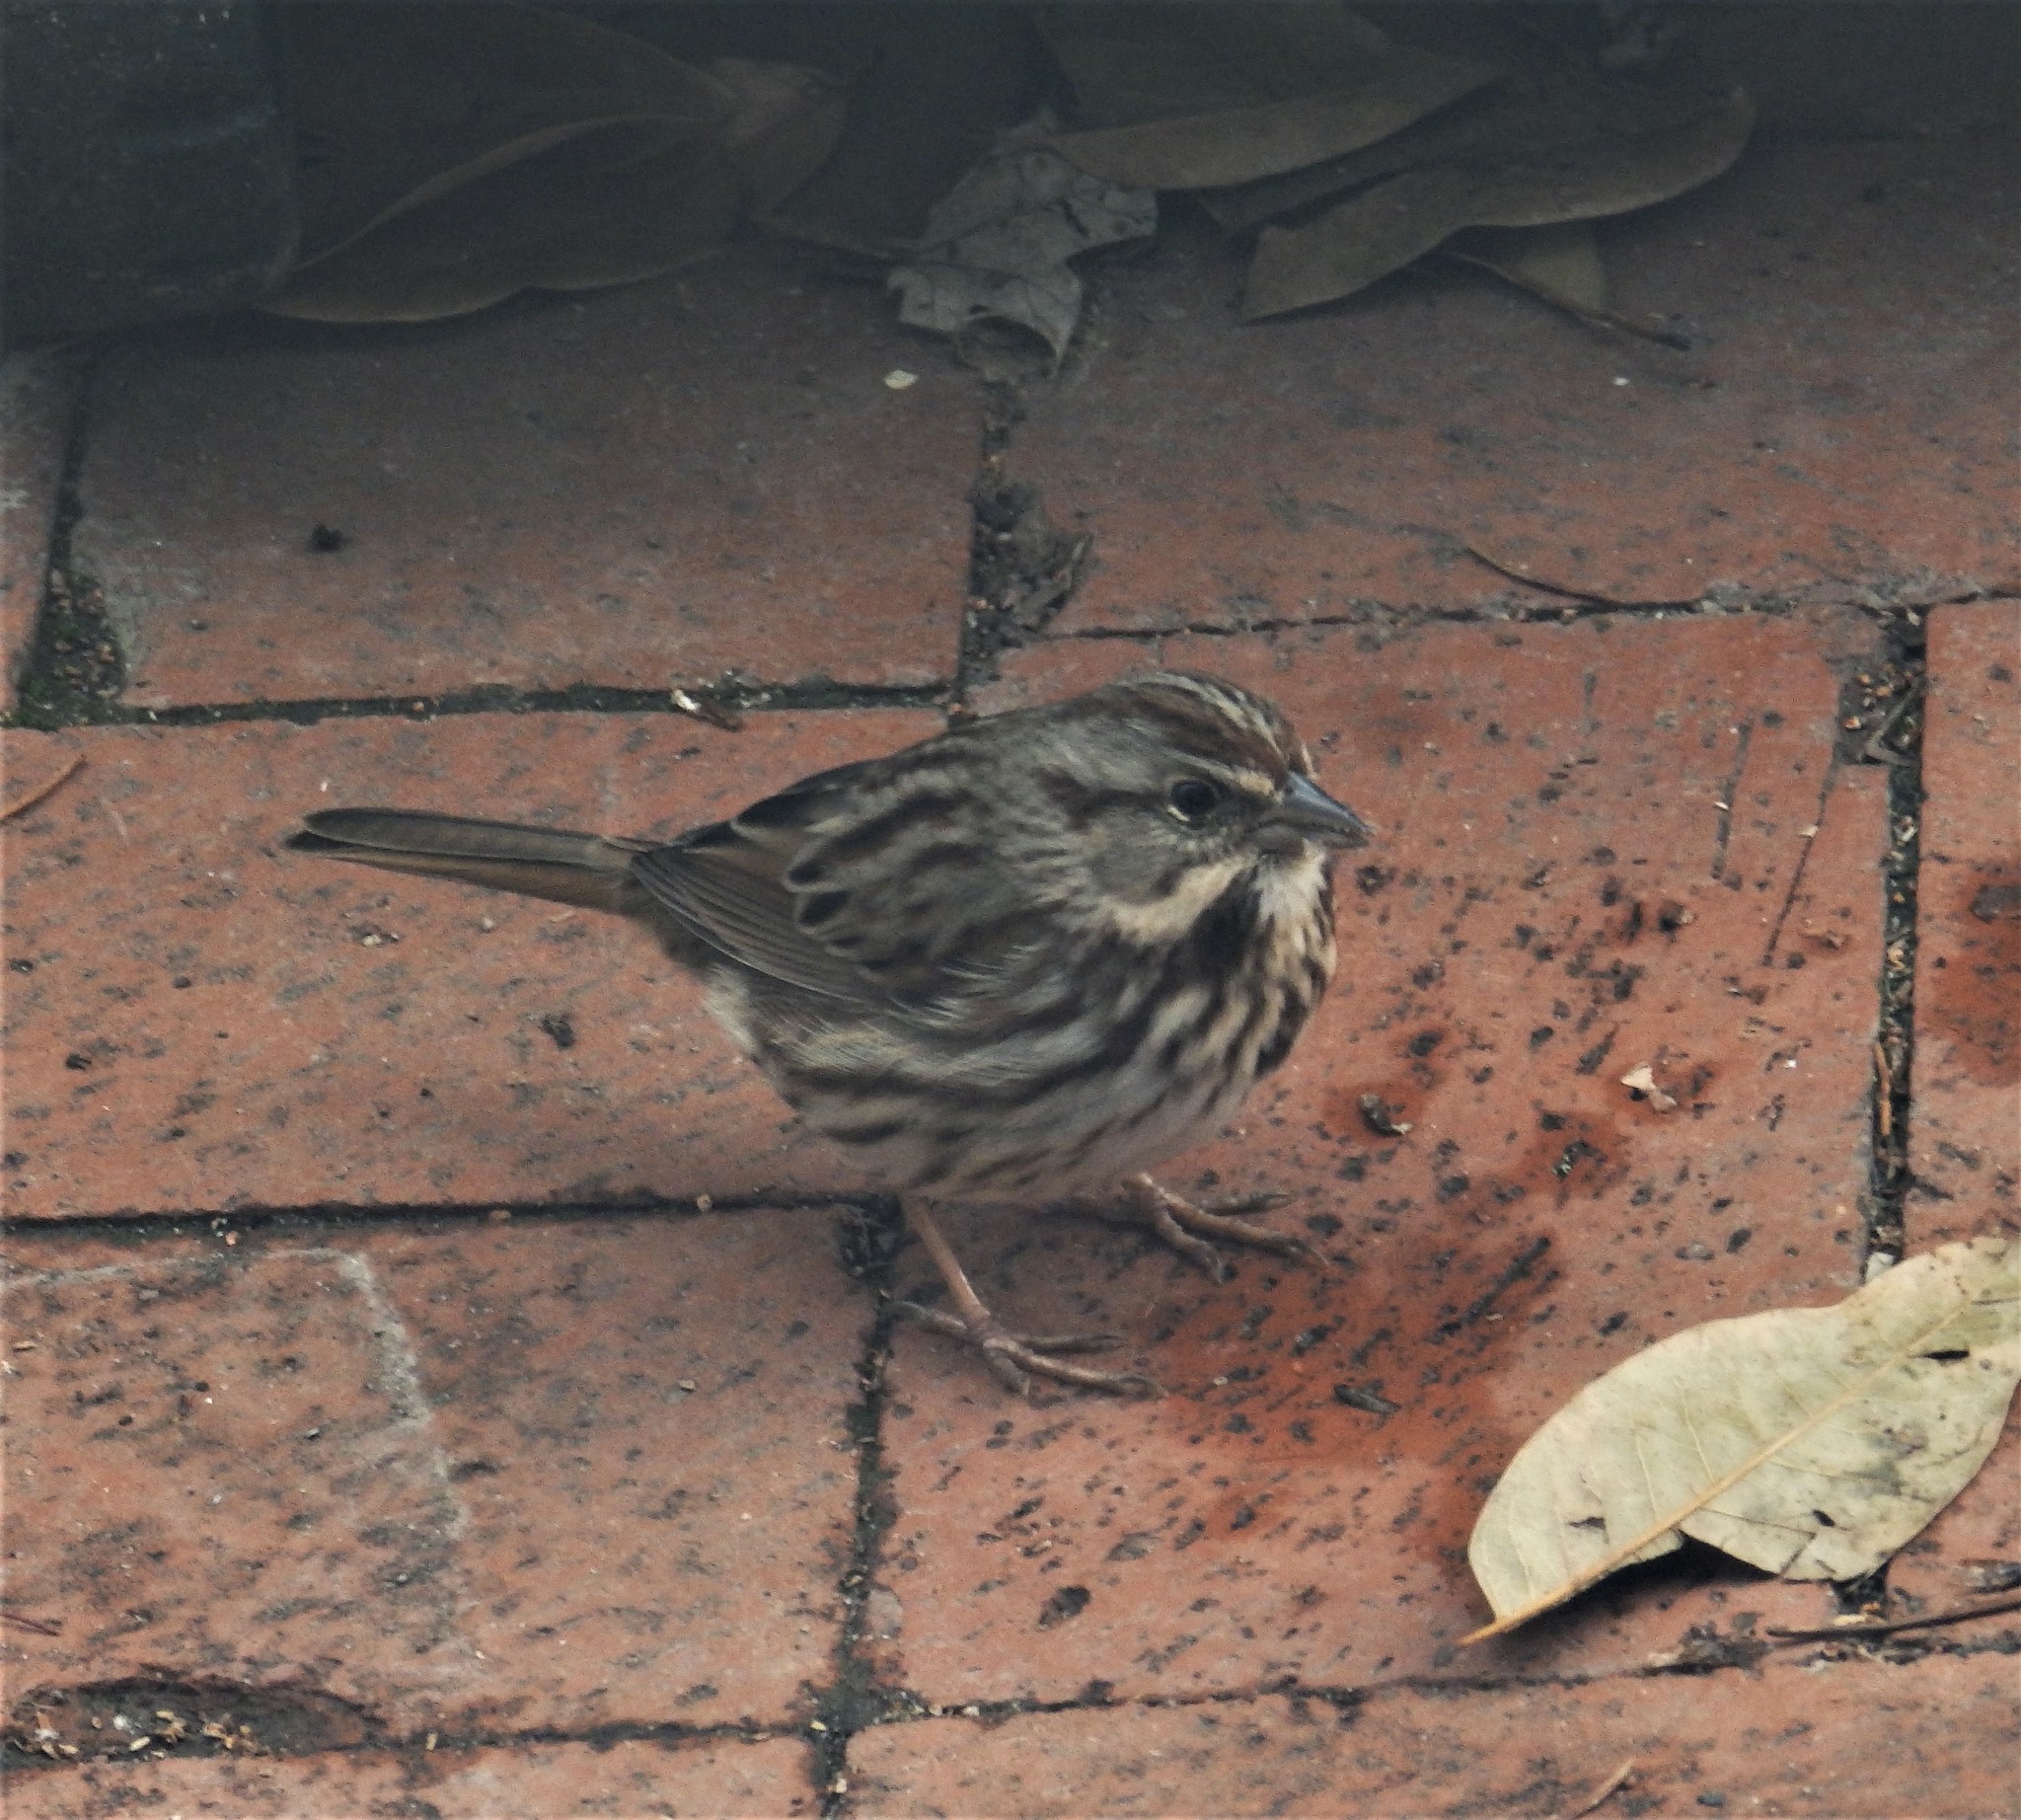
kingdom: Animalia
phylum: Chordata
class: Aves
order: Passeriformes
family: Passerellidae
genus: Melospiza
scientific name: Melospiza melodia
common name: Song sparrow
